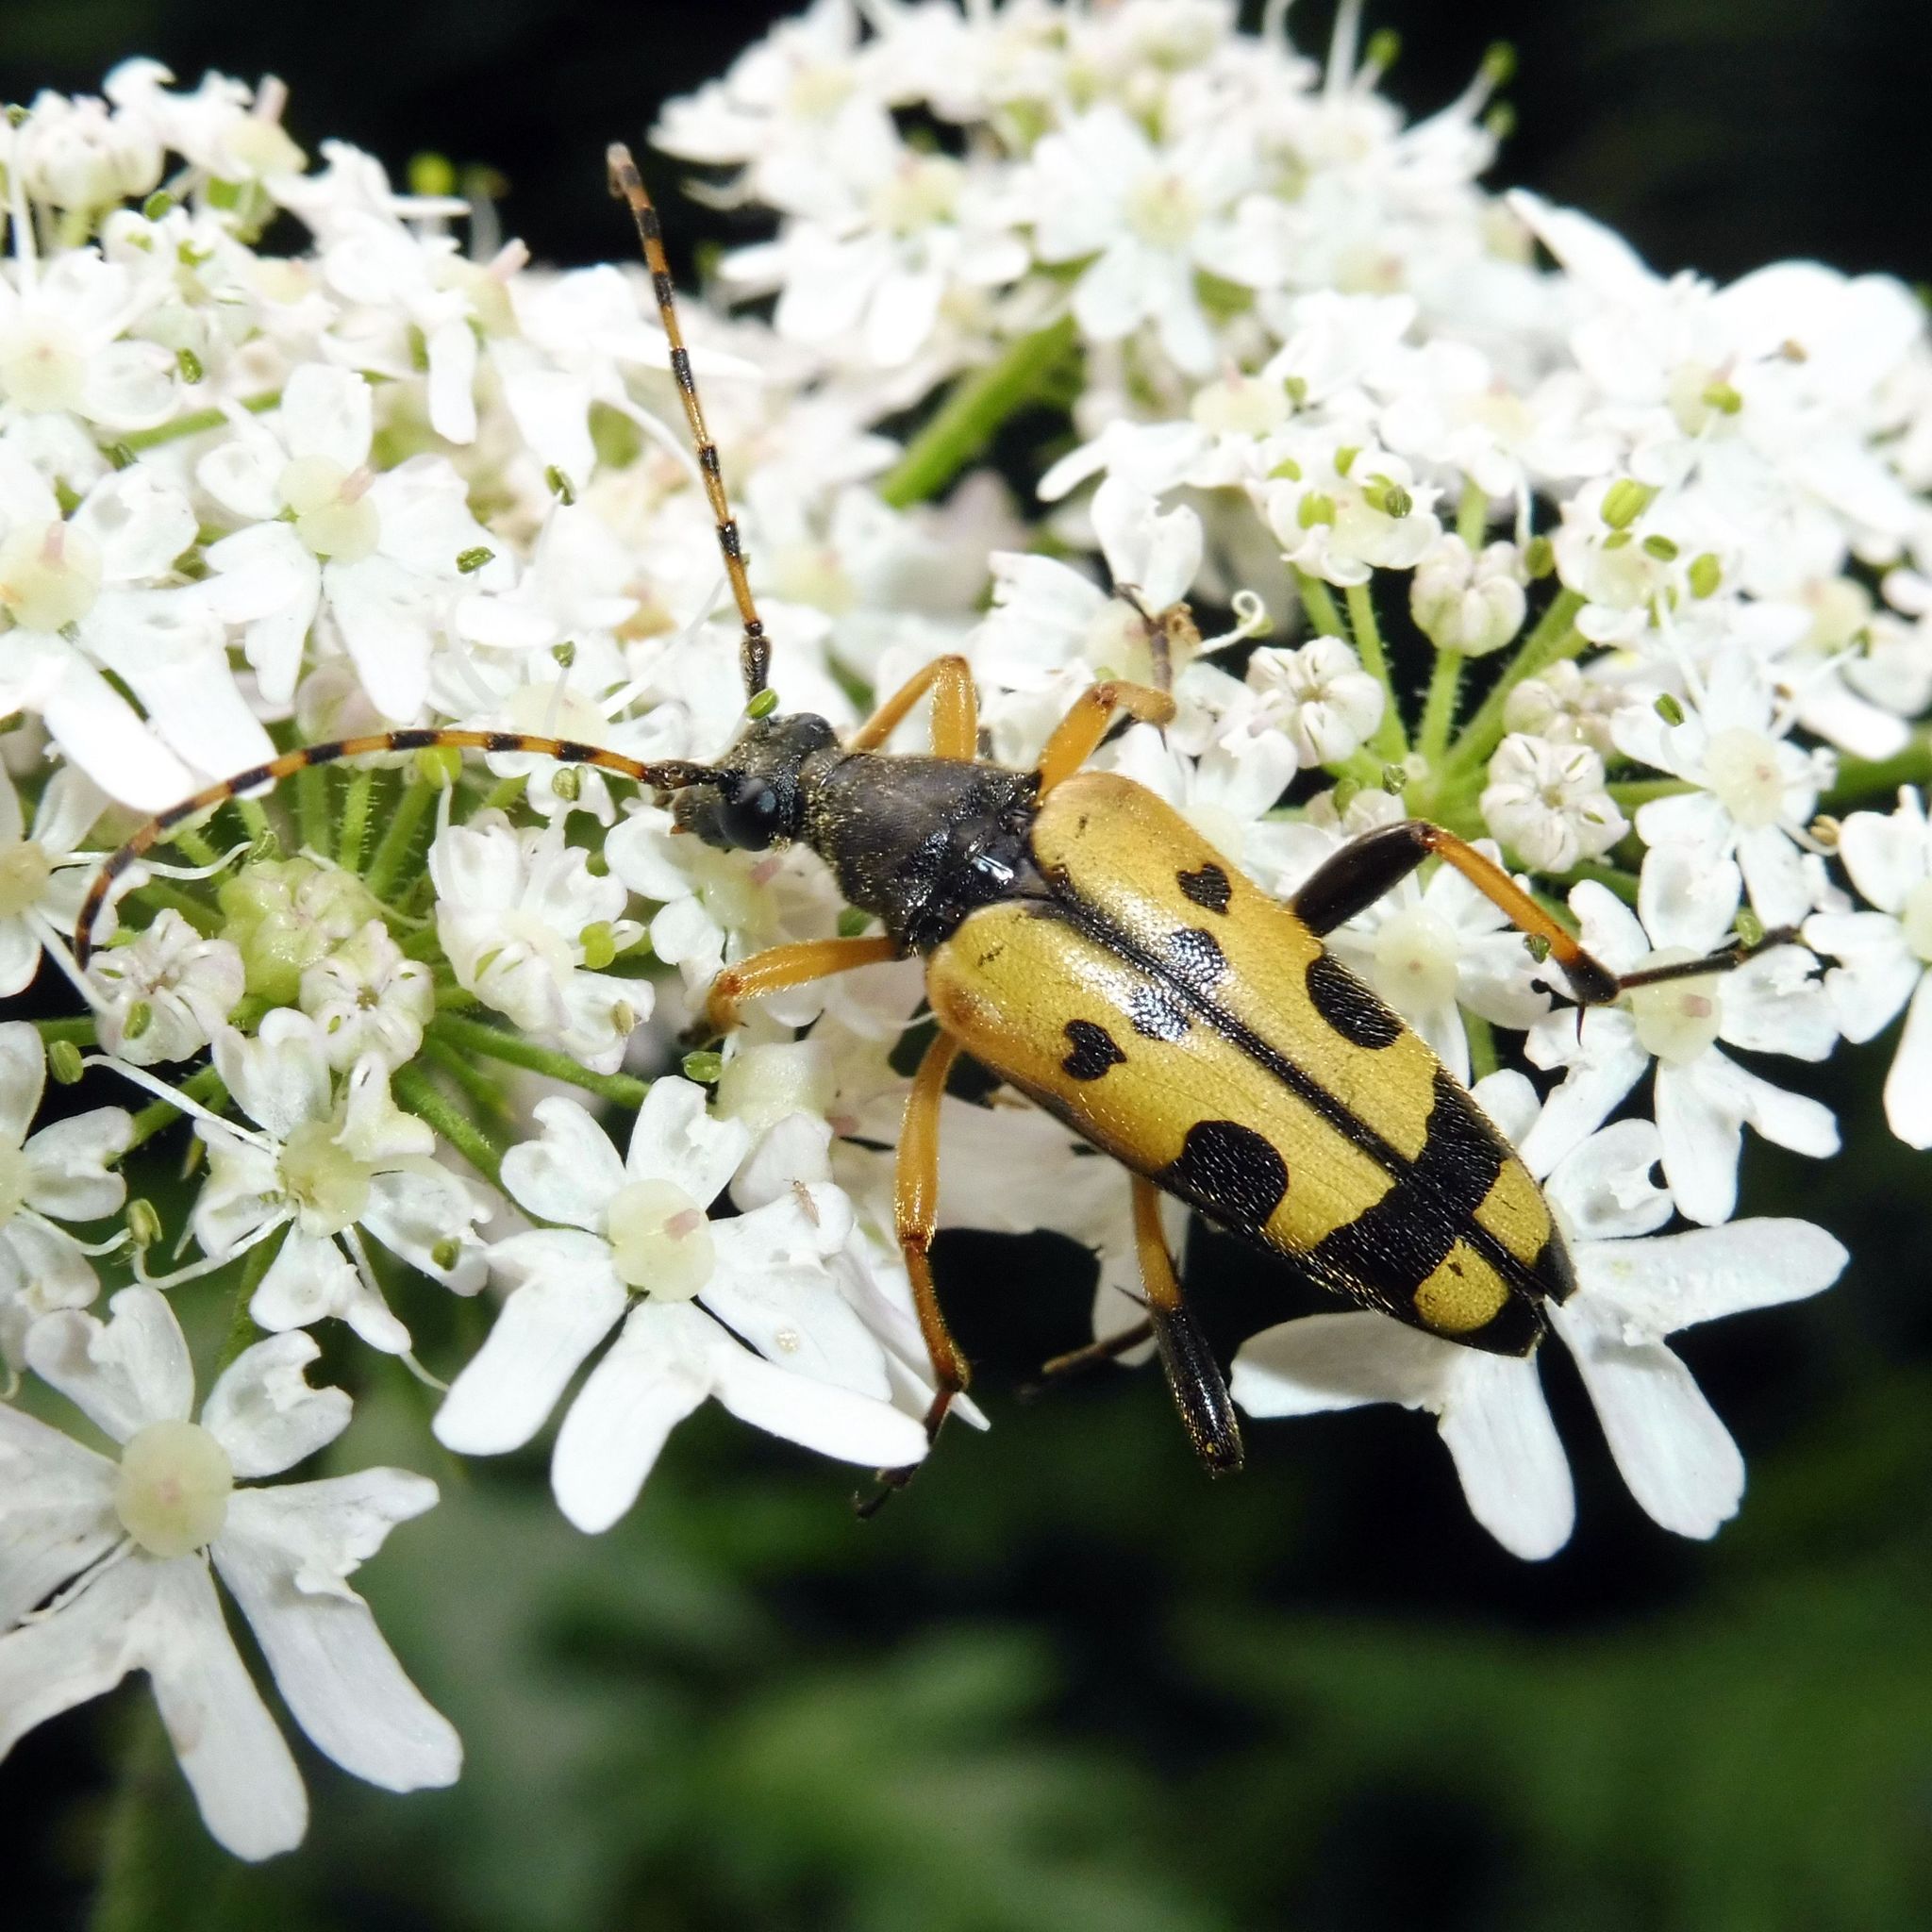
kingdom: Animalia
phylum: Arthropoda
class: Insecta
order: Coleoptera
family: Cerambycidae
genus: Rutpela
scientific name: Rutpela maculata
